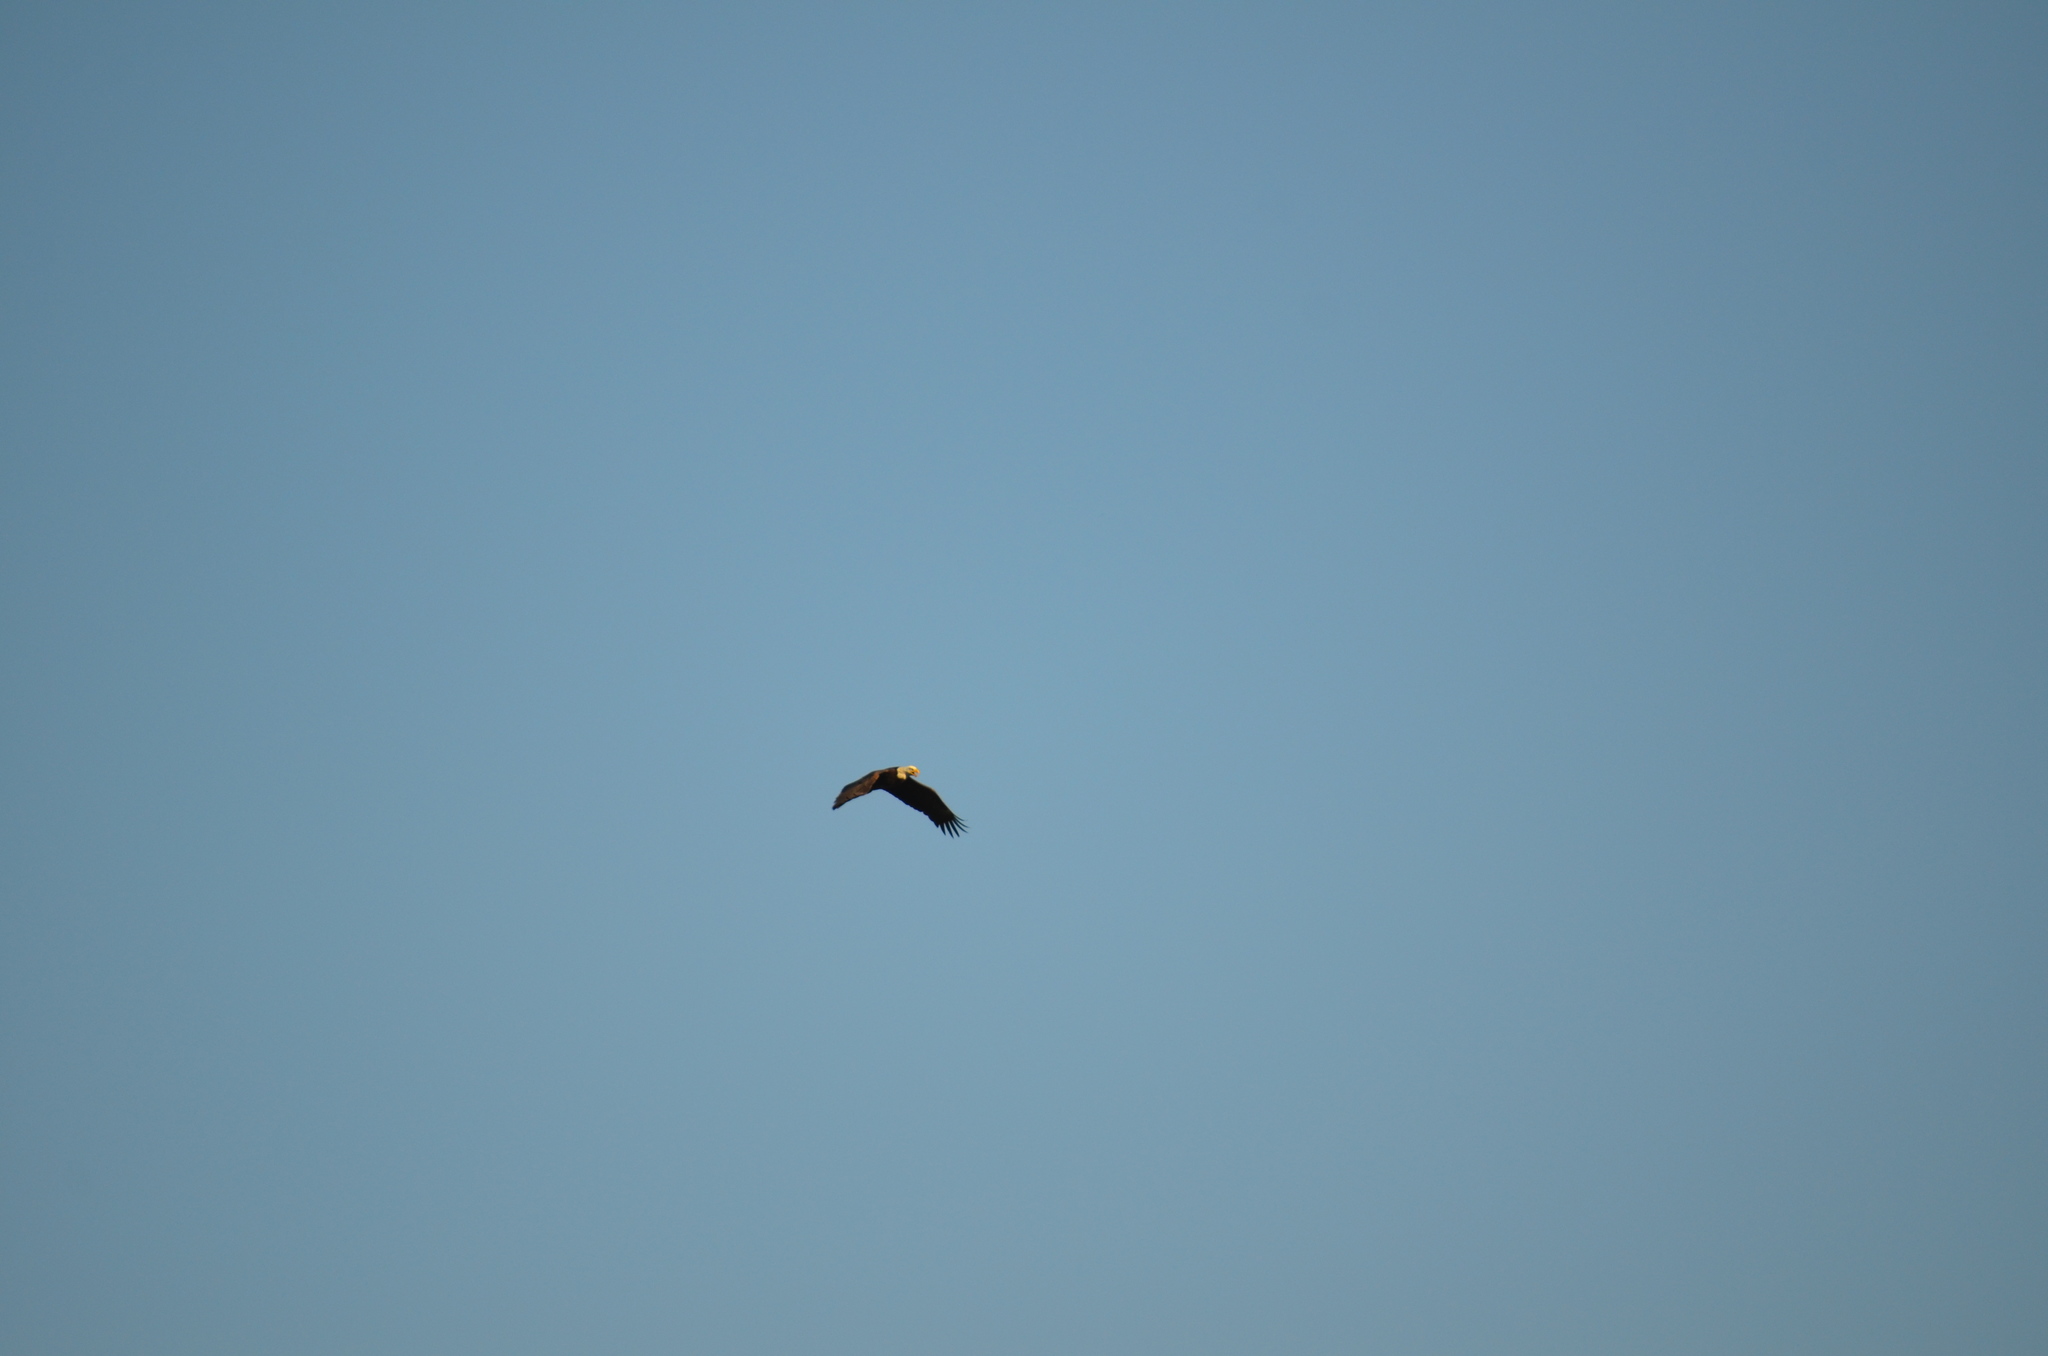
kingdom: Animalia
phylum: Chordata
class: Aves
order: Accipitriformes
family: Accipitridae
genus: Haliaeetus
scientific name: Haliaeetus leucocephalus
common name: Bald eagle
